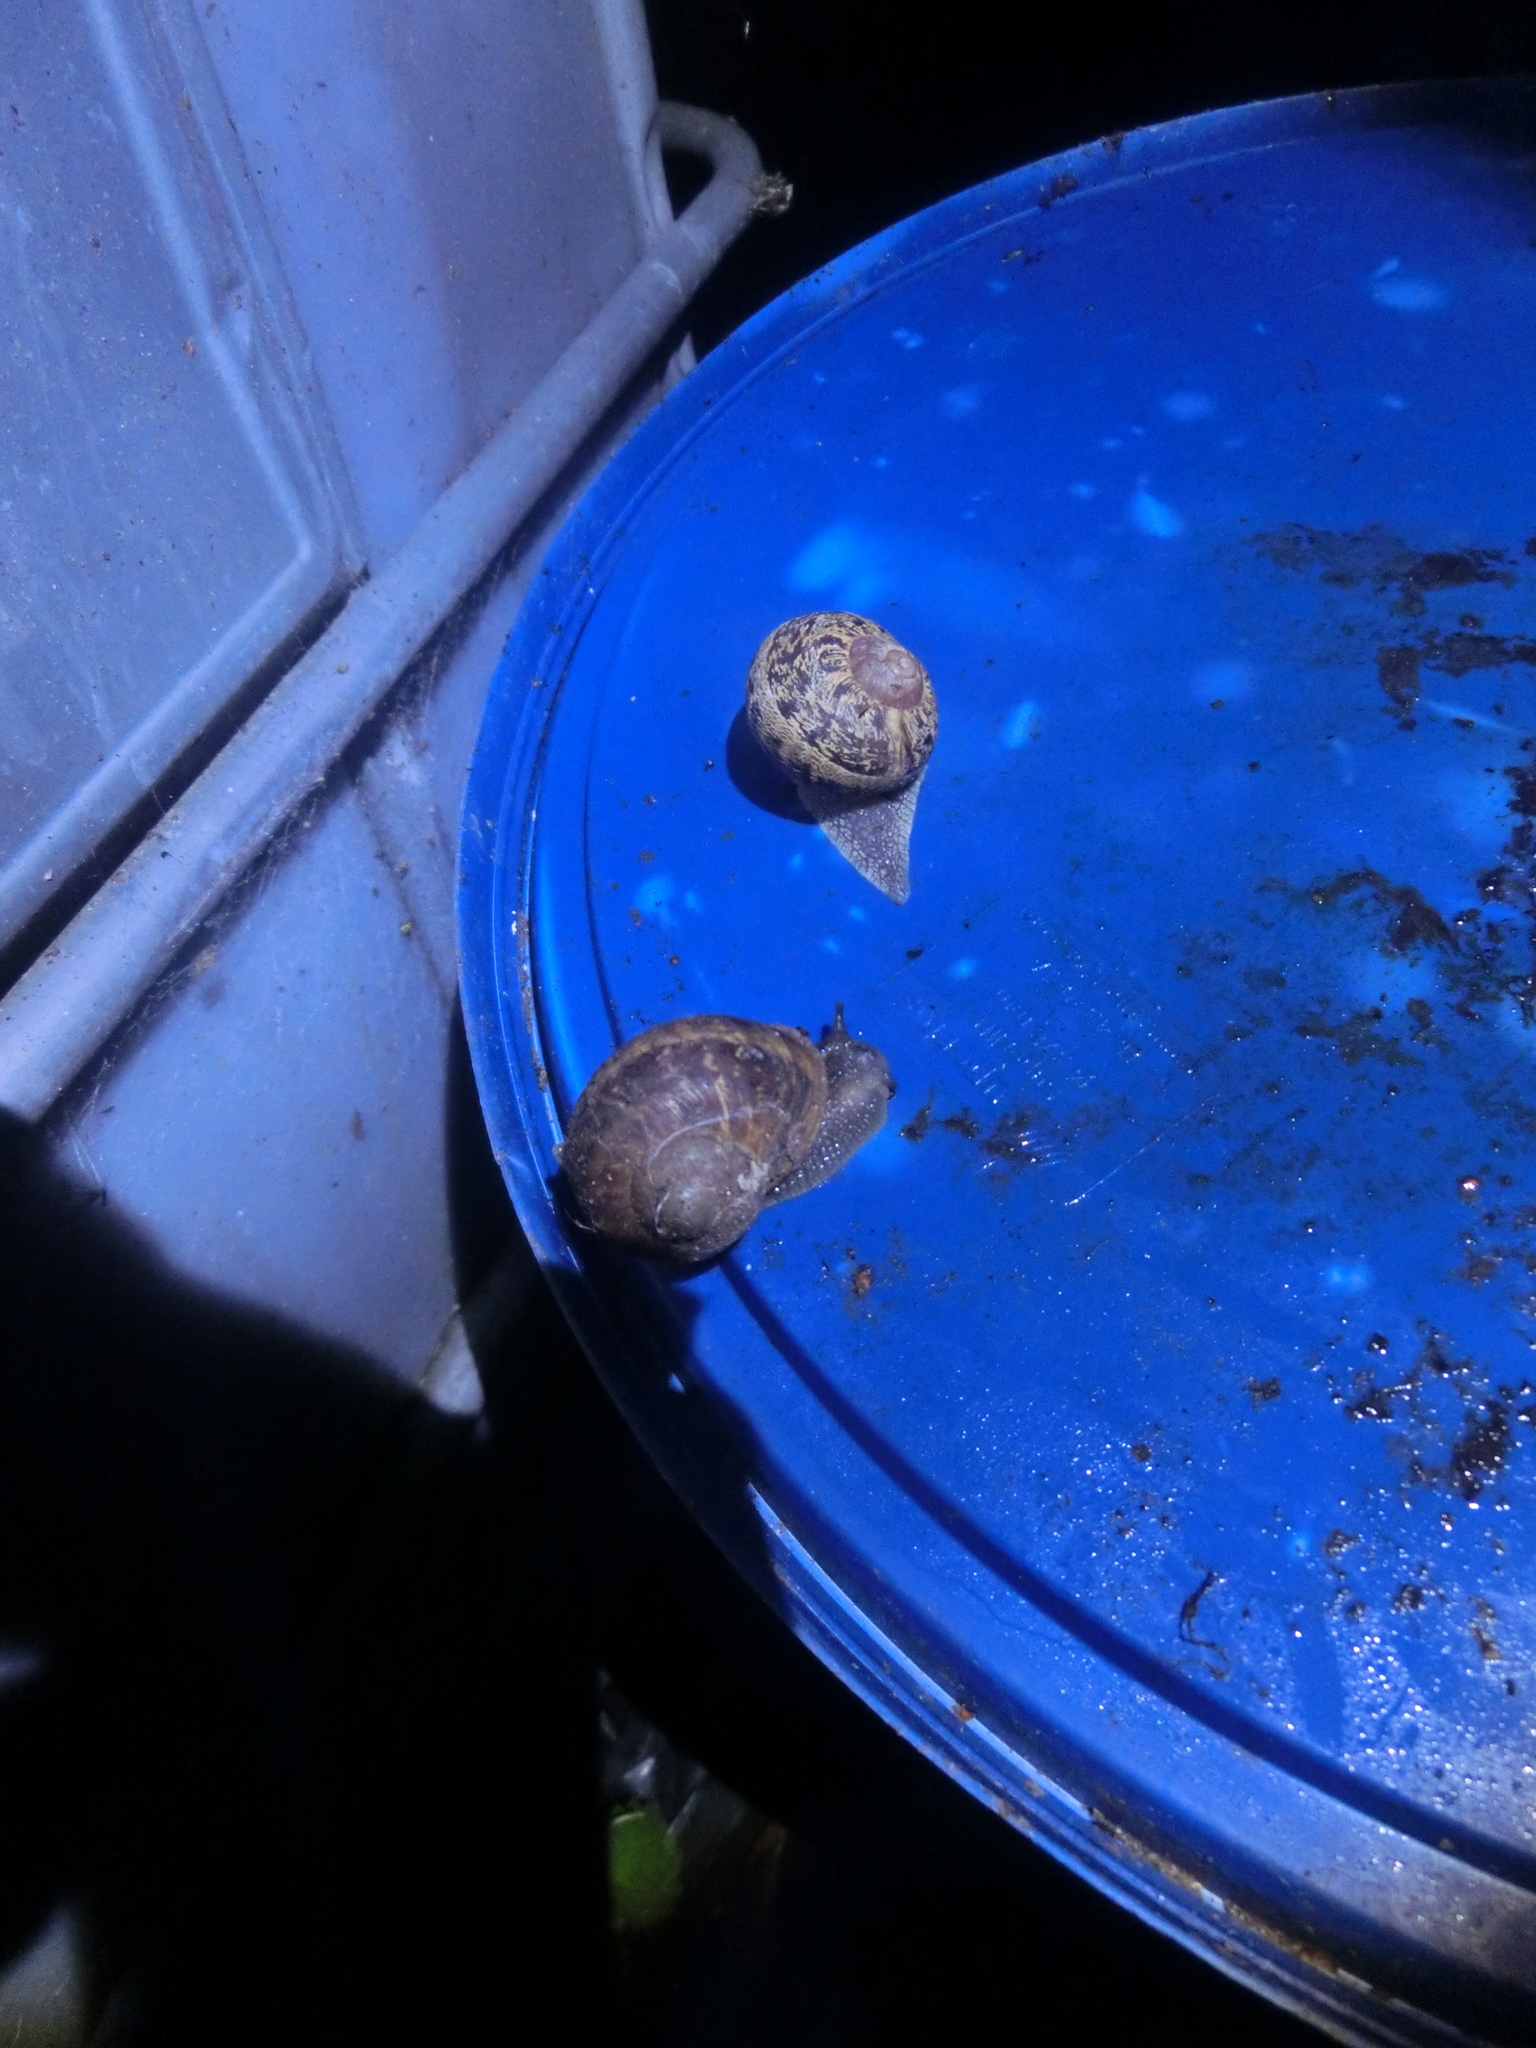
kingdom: Animalia
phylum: Mollusca
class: Gastropoda
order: Stylommatophora
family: Helicidae
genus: Cornu
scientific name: Cornu aspersum
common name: Brown garden snail
